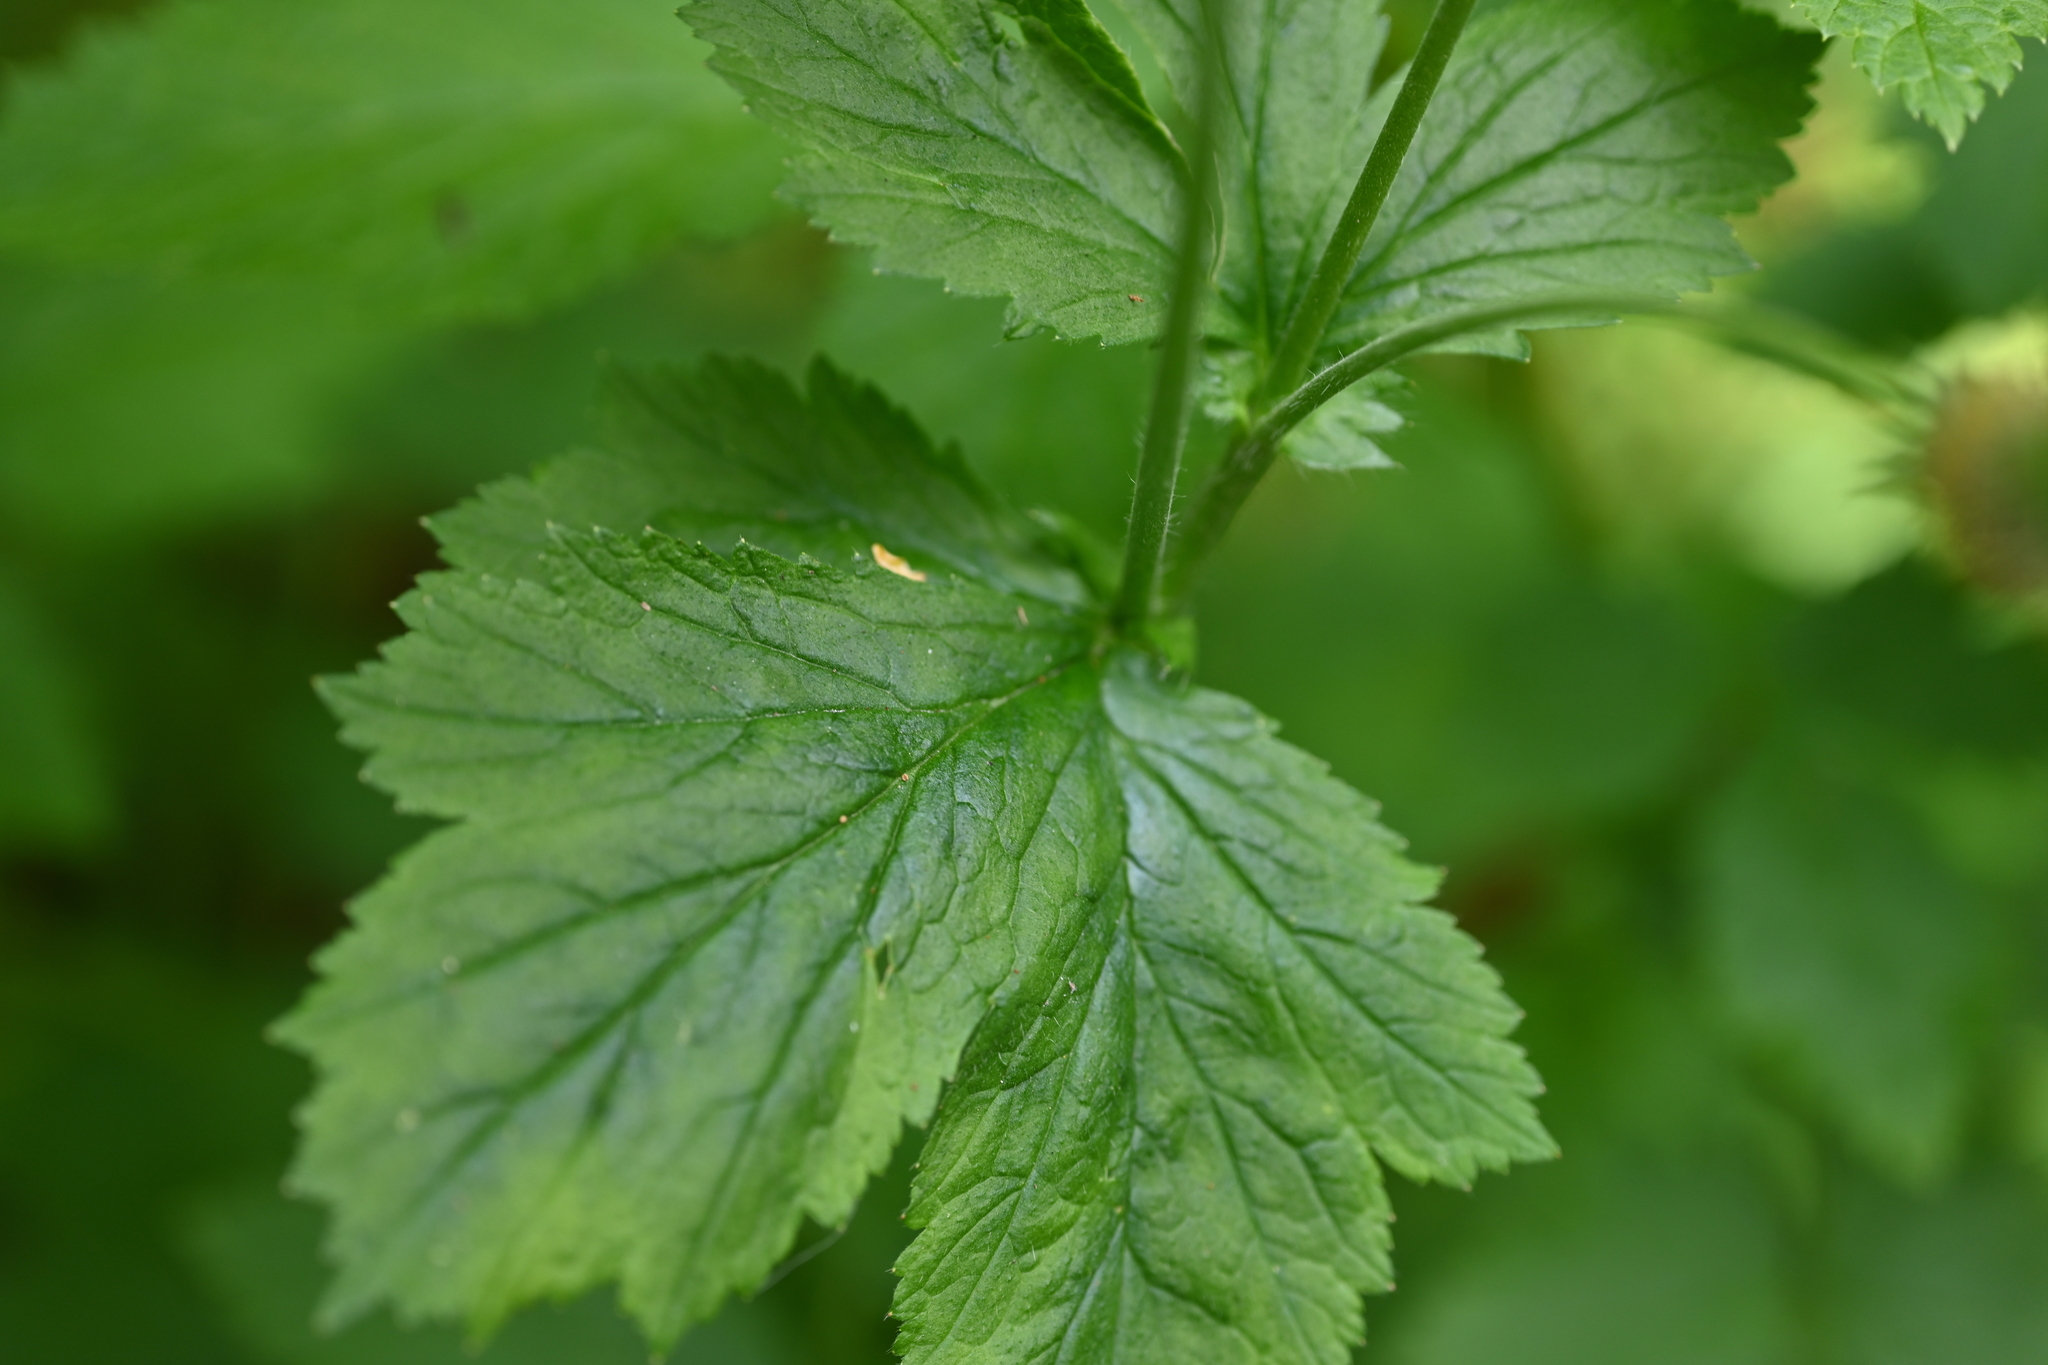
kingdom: Plantae
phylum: Tracheophyta
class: Magnoliopsida
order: Rosales
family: Rosaceae
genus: Geum
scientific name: Geum macrophyllum
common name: Large-leaved avens
